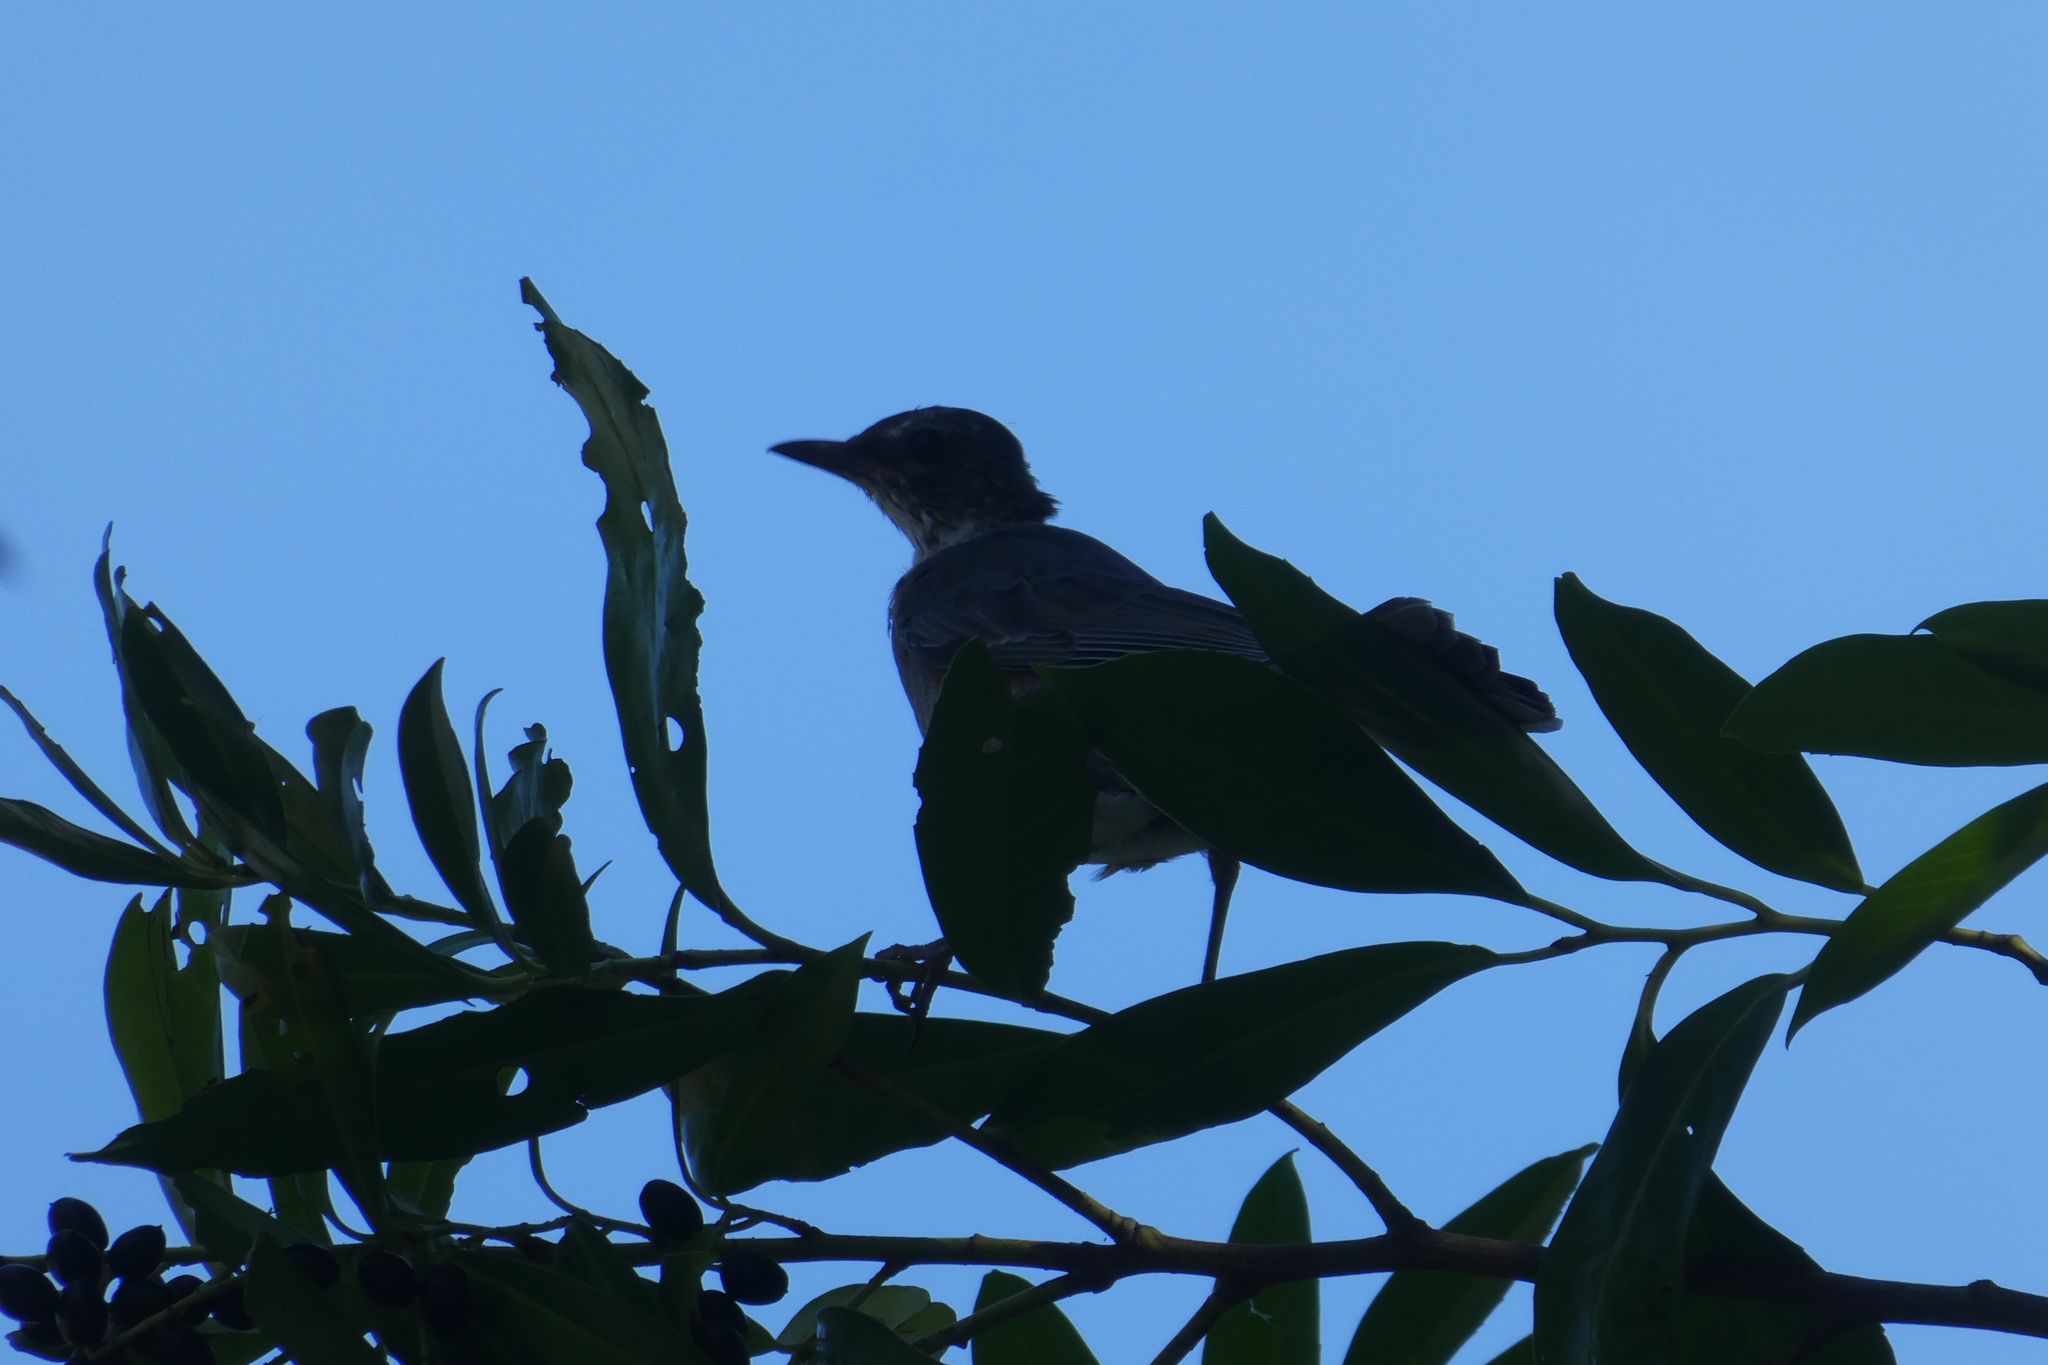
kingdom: Animalia
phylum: Chordata
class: Aves
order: Passeriformes
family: Turdidae
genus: Turdus
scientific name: Turdus migratorius
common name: American robin
